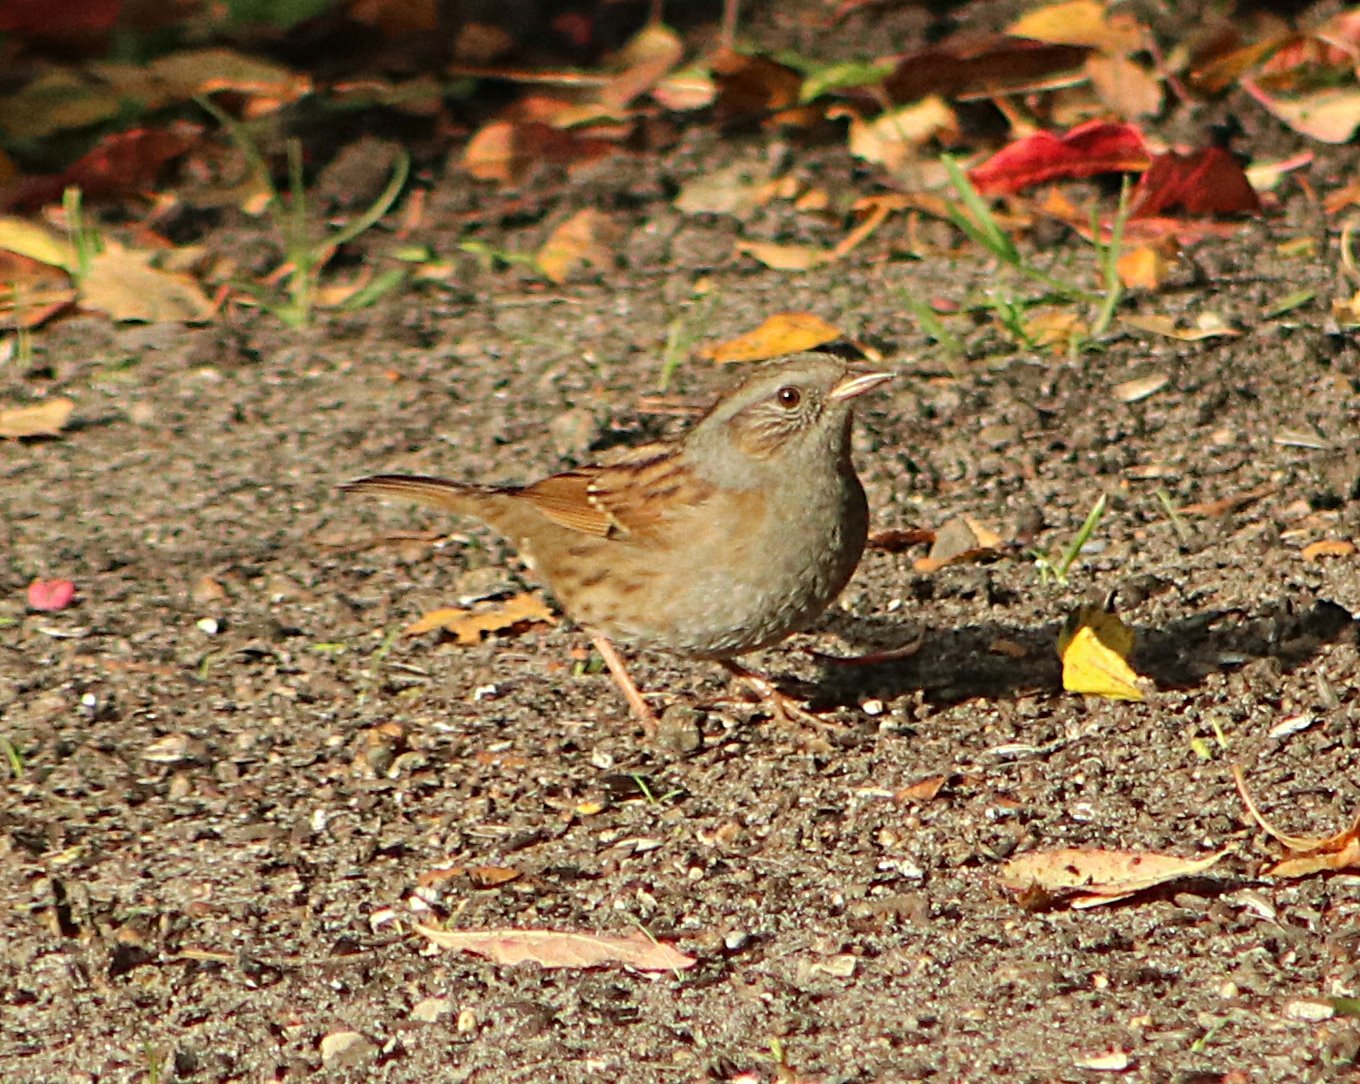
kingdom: Animalia
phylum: Chordata
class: Aves
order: Passeriformes
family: Prunellidae
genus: Prunella
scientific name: Prunella modularis
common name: Dunnock
